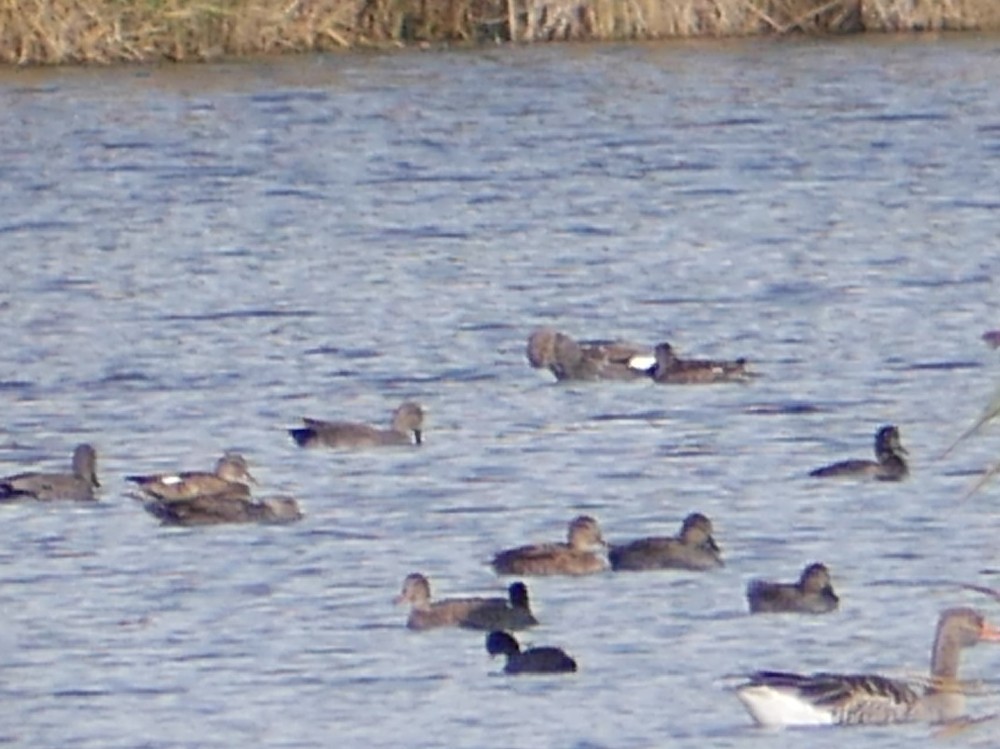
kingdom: Animalia
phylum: Chordata
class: Aves
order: Anseriformes
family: Anatidae
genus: Mareca
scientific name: Mareca strepera
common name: Gadwall
